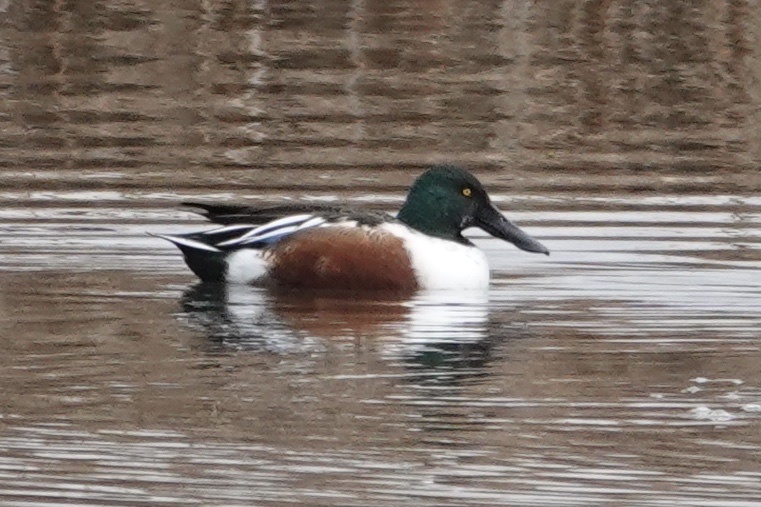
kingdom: Animalia
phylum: Chordata
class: Aves
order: Anseriformes
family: Anatidae
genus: Spatula
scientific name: Spatula clypeata
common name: Northern shoveler
